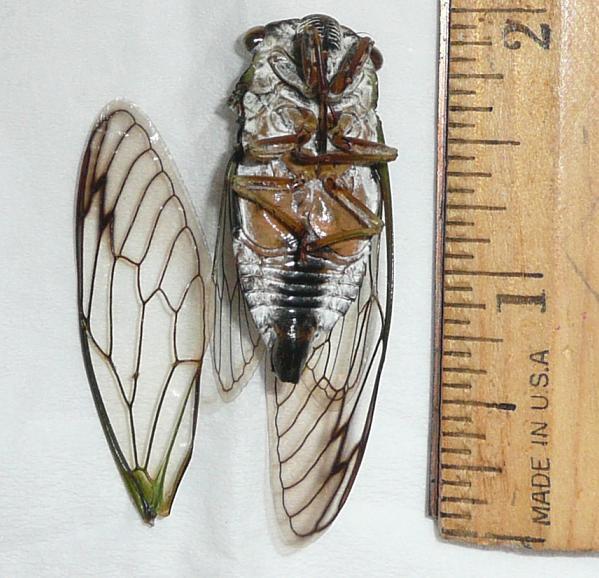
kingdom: Animalia
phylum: Arthropoda
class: Insecta
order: Hemiptera
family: Cicadidae
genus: Neotibicen
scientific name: Neotibicen latifasciatus
